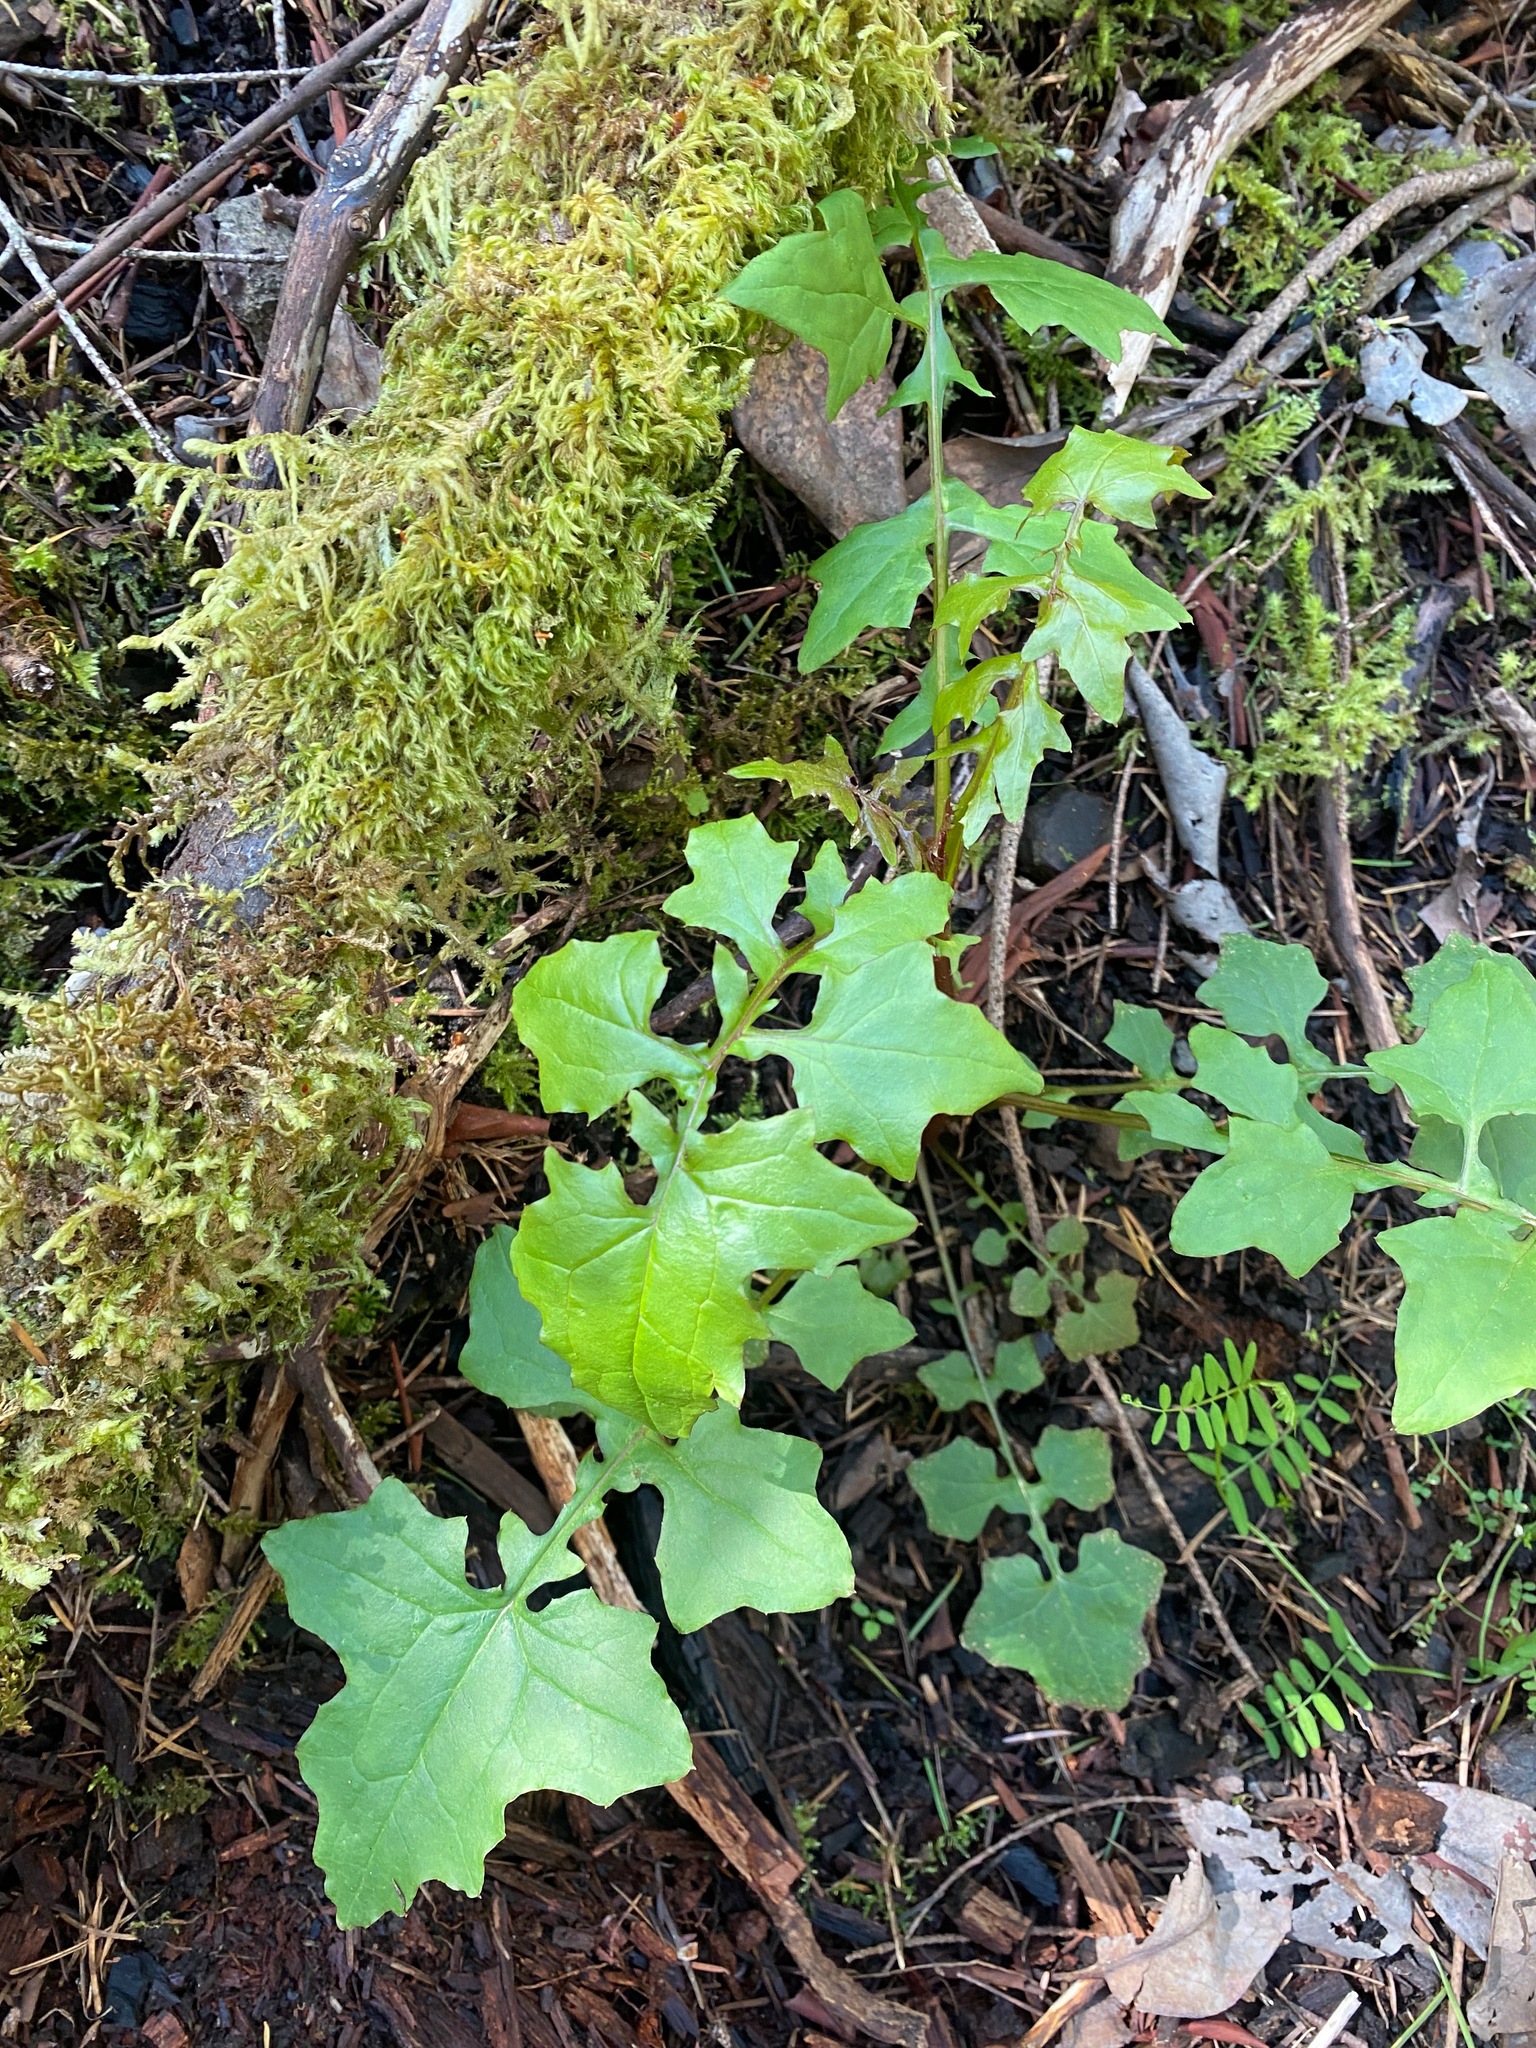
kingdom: Plantae
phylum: Tracheophyta
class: Magnoliopsida
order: Asterales
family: Asteraceae
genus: Mycelis
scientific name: Mycelis muralis
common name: Wall lettuce
